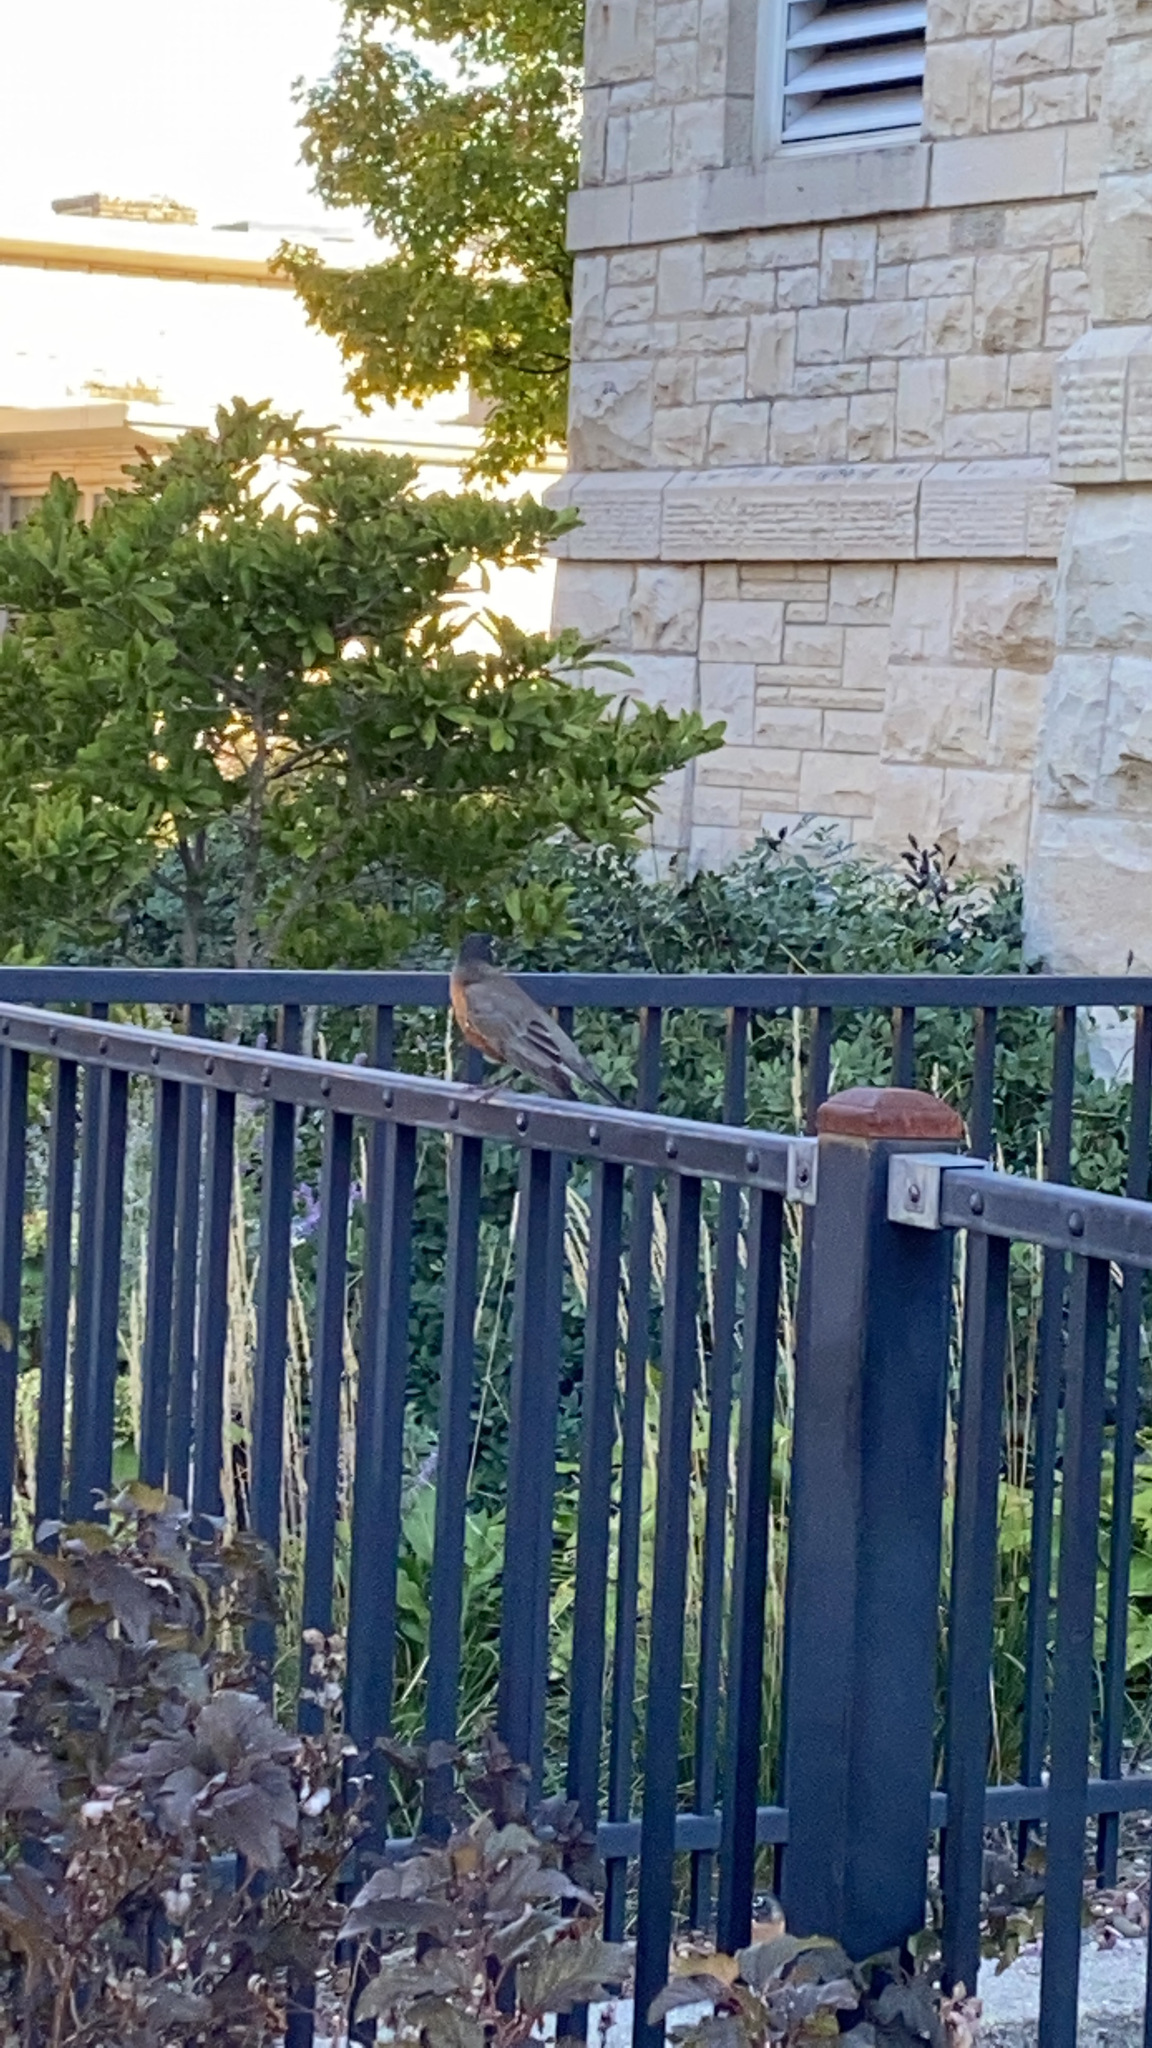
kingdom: Animalia
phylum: Chordata
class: Aves
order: Passeriformes
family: Turdidae
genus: Turdus
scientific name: Turdus migratorius
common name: American robin
